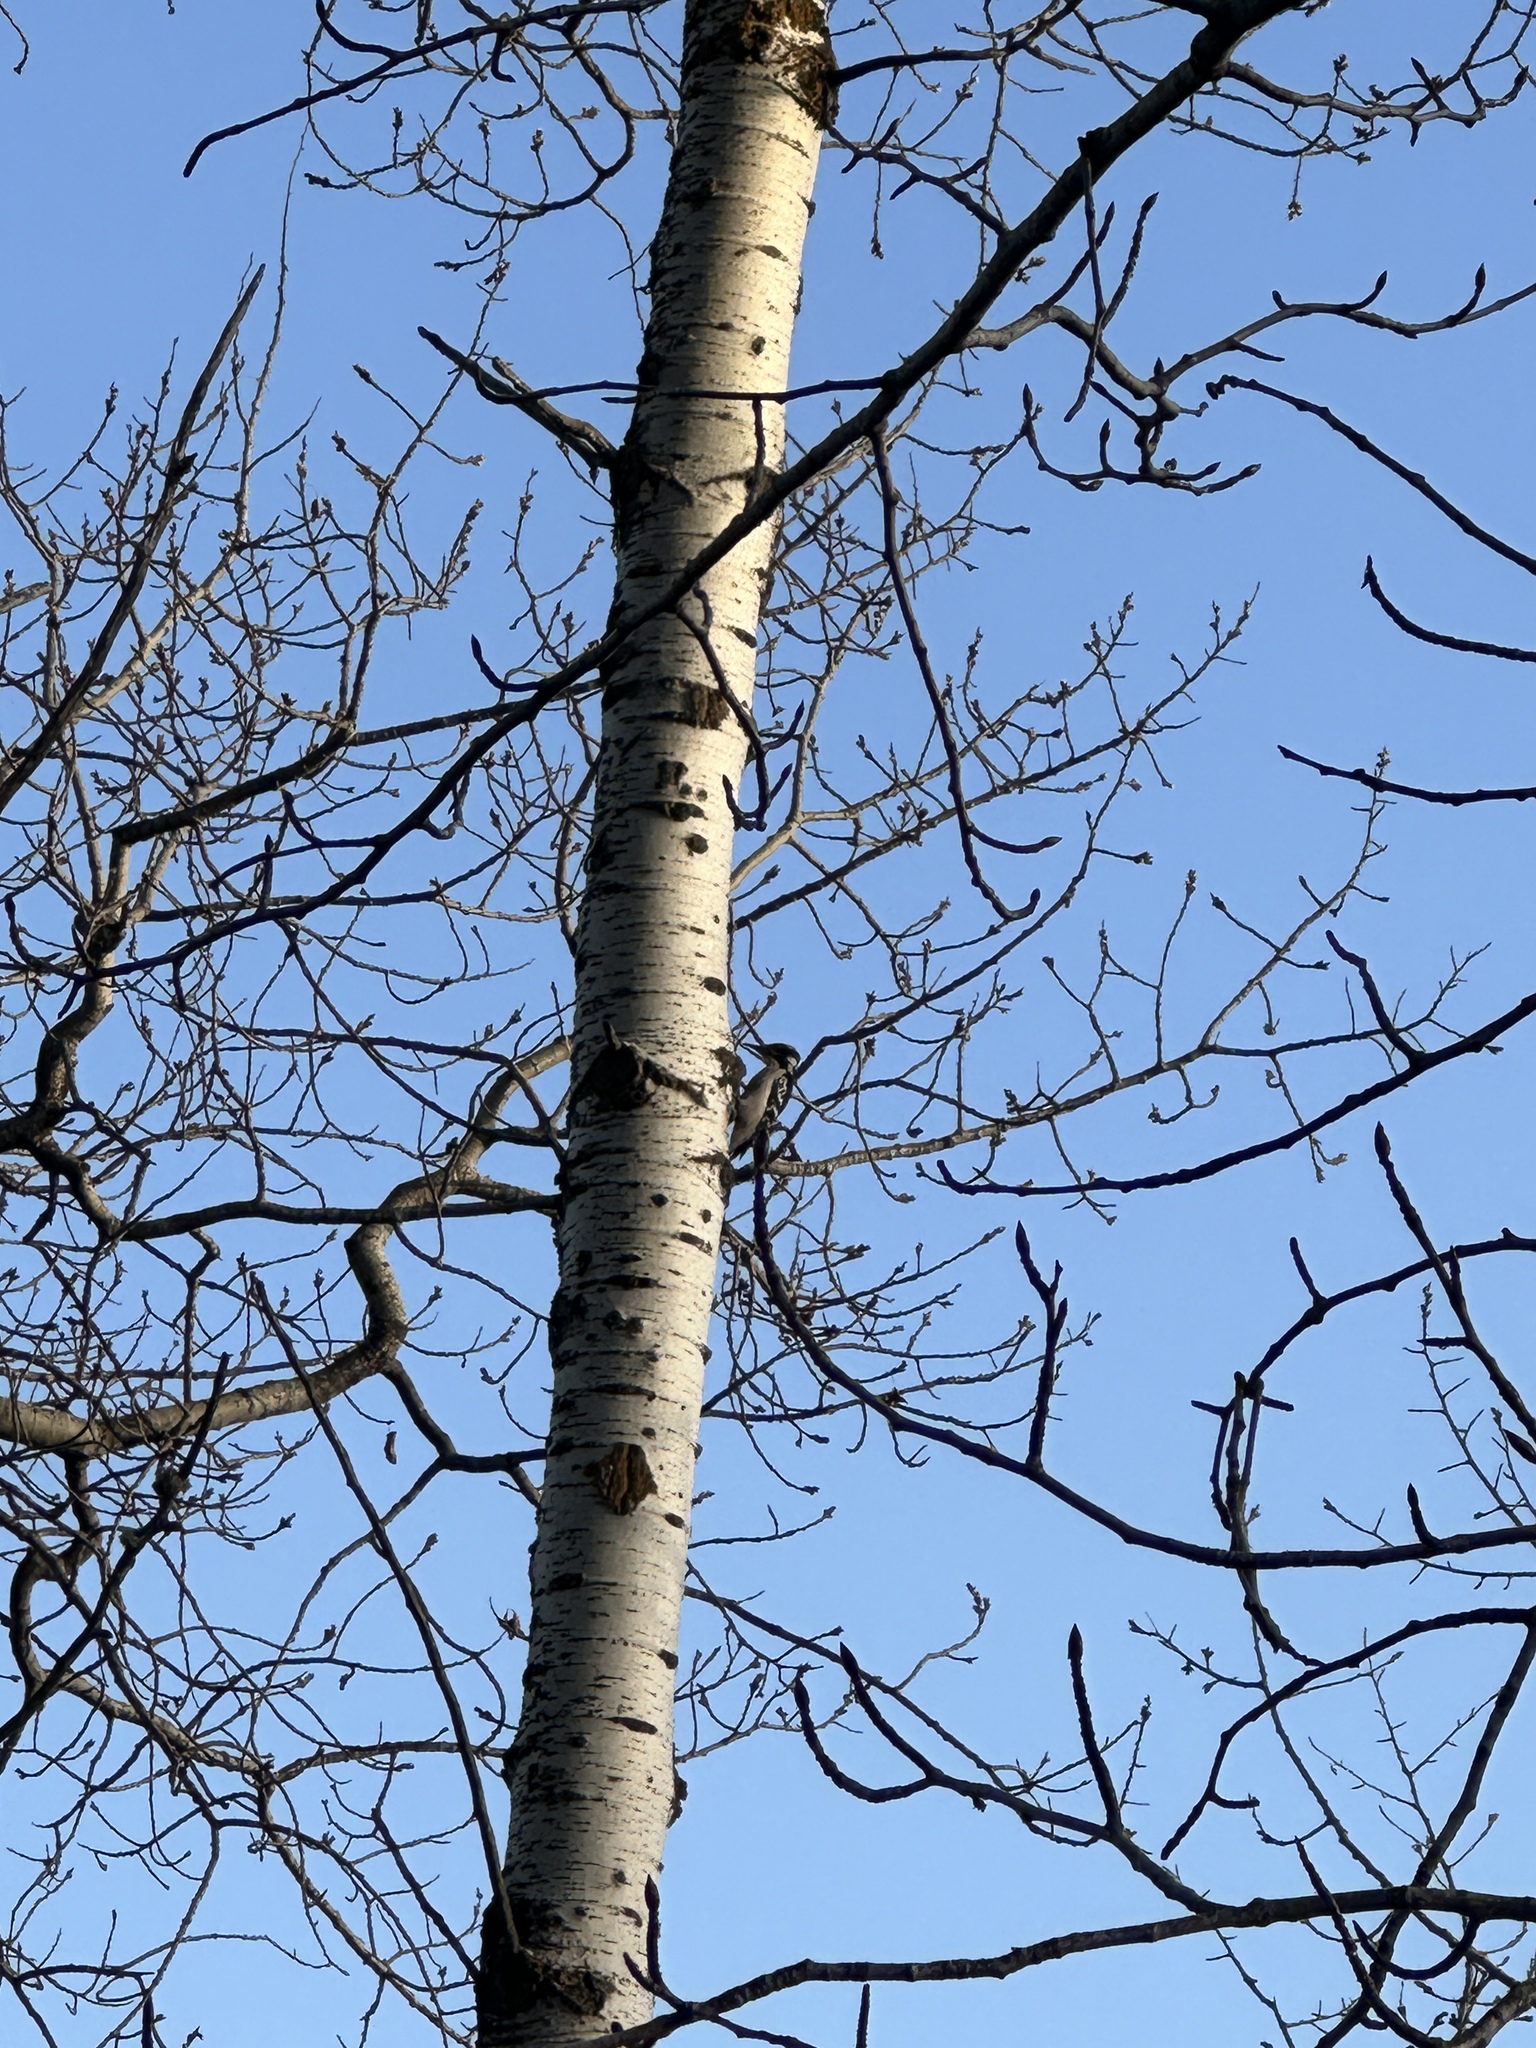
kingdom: Animalia
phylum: Chordata
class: Aves
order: Piciformes
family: Picidae
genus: Leuconotopicus
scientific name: Leuconotopicus villosus
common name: Hairy woodpecker
